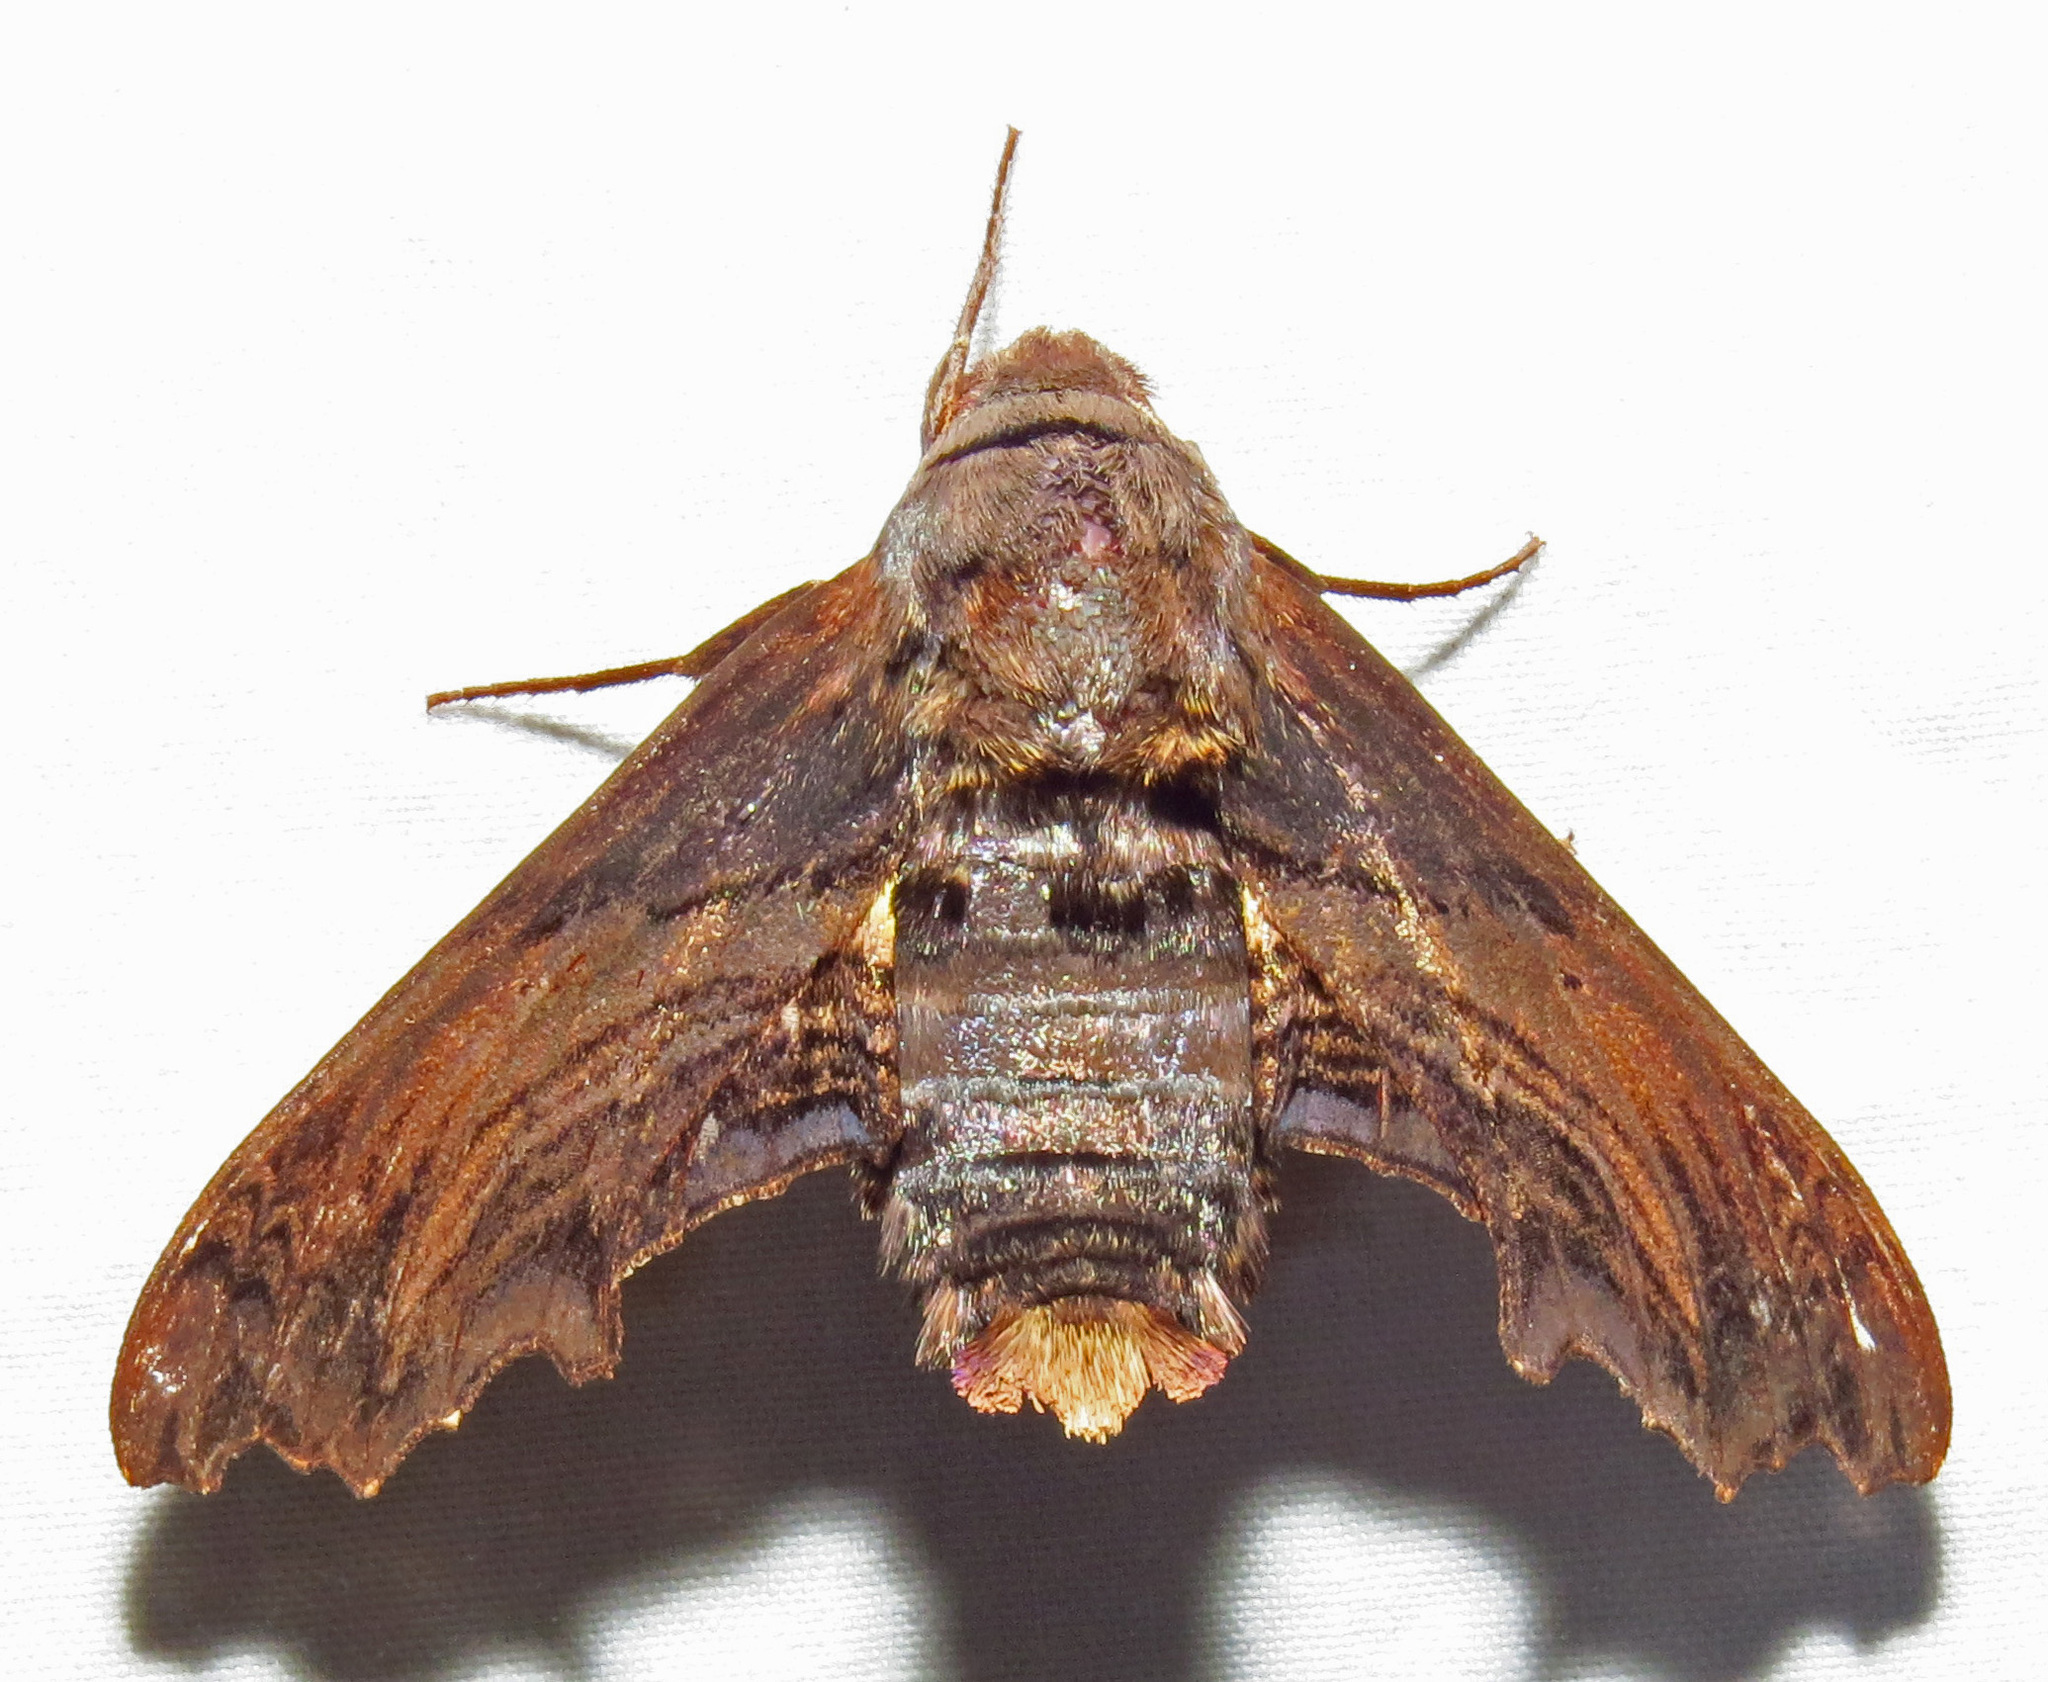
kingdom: Animalia
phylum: Arthropoda
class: Insecta
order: Lepidoptera
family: Sphingidae
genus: Sphecodina
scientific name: Sphecodina abbottii
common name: Abbott's sphinx
